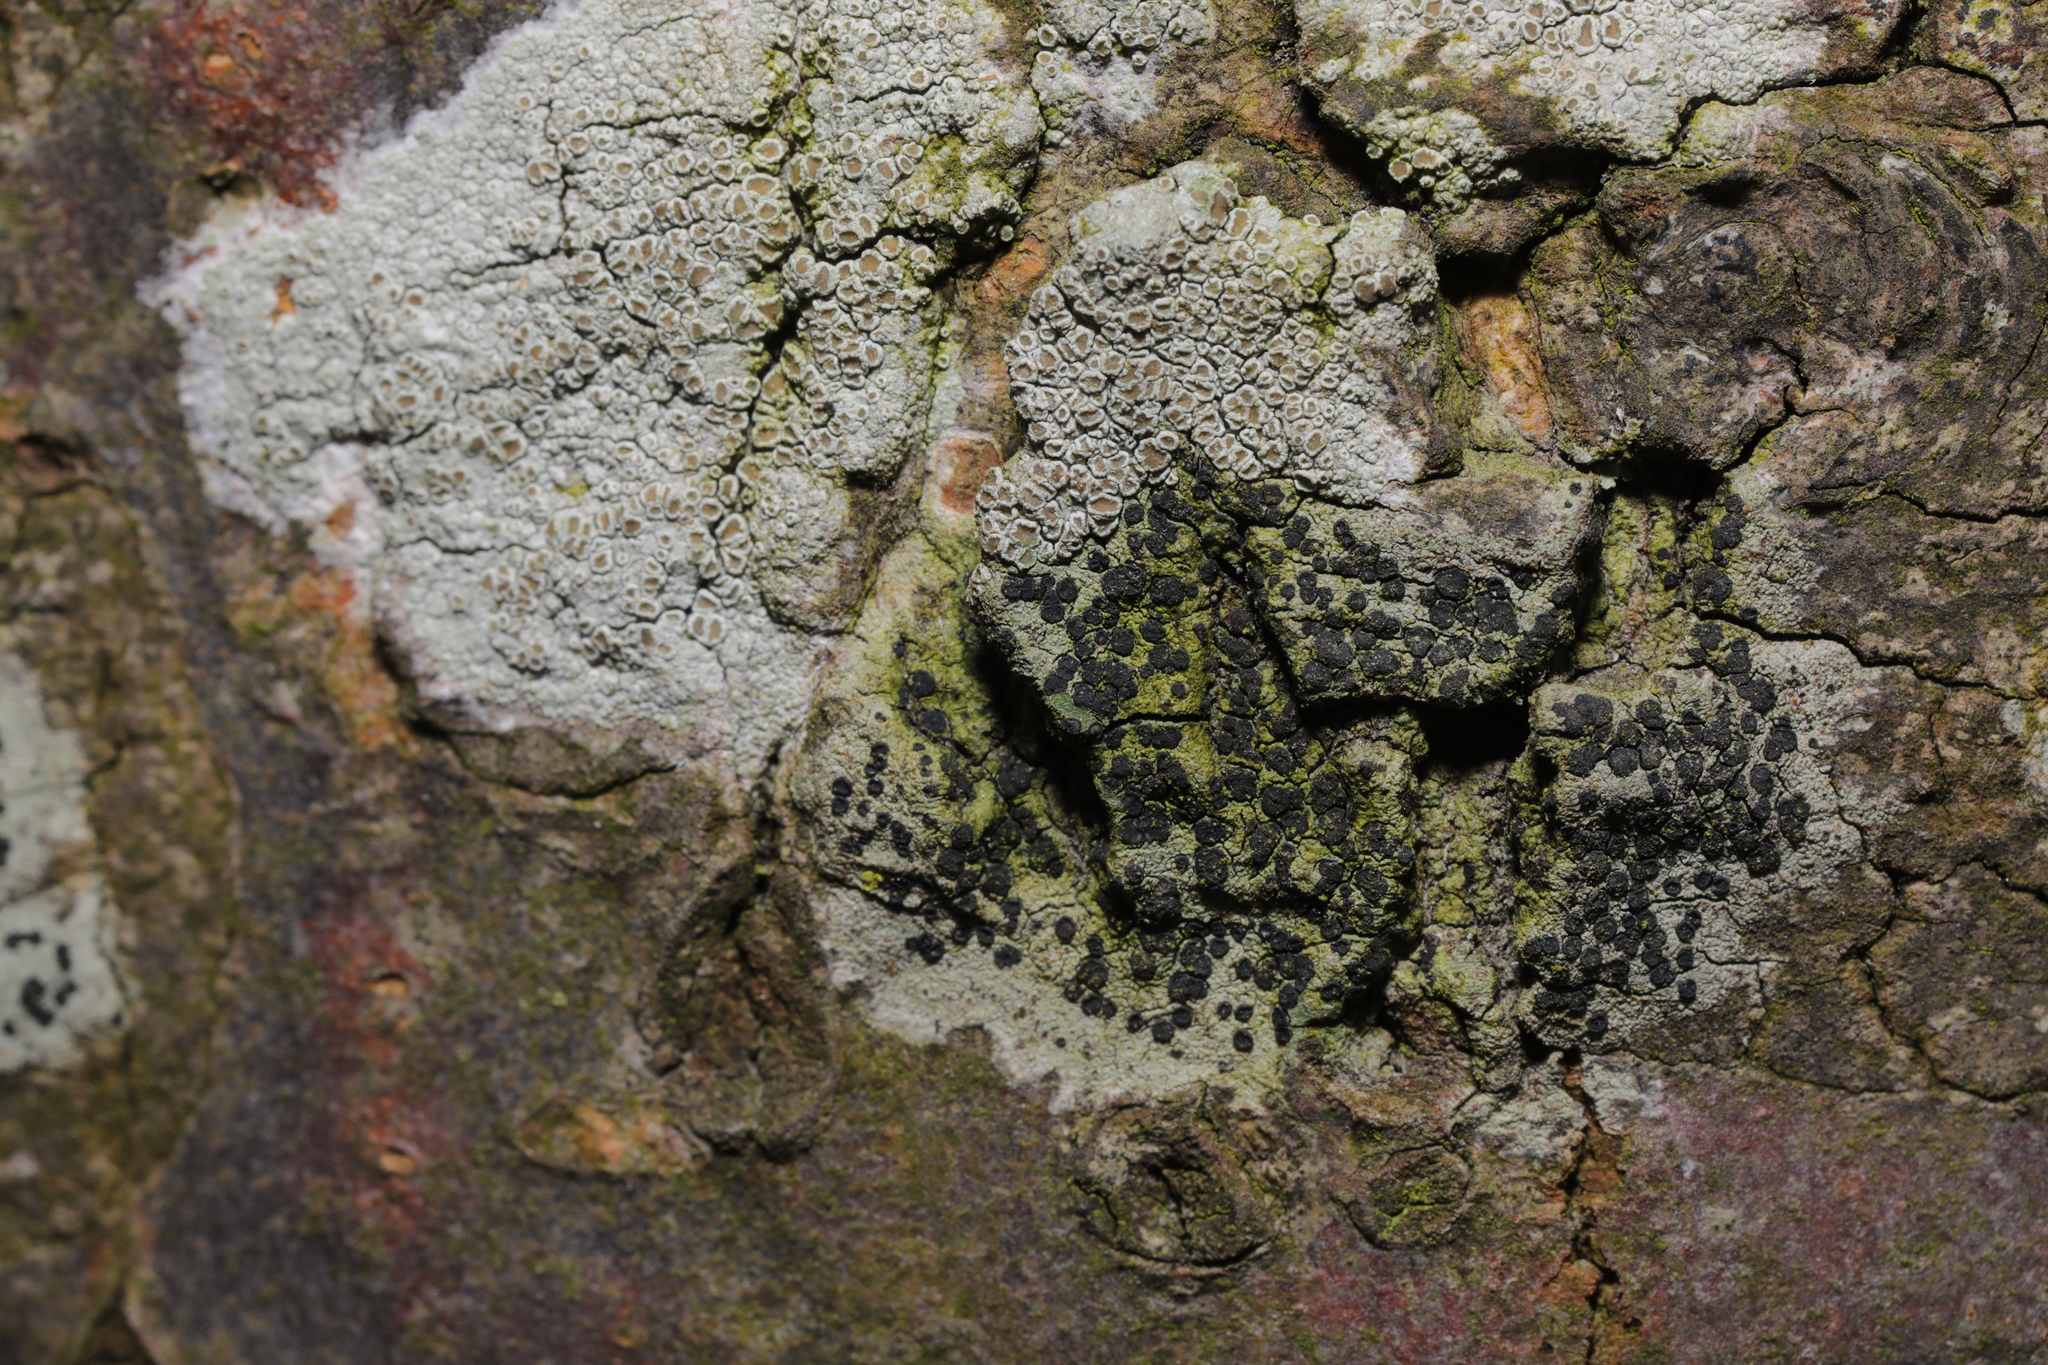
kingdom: Fungi
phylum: Ascomycota
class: Lecanoromycetes
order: Lecanorales
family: Lecanoraceae
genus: Lecidella
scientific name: Lecidella elaeochroma
